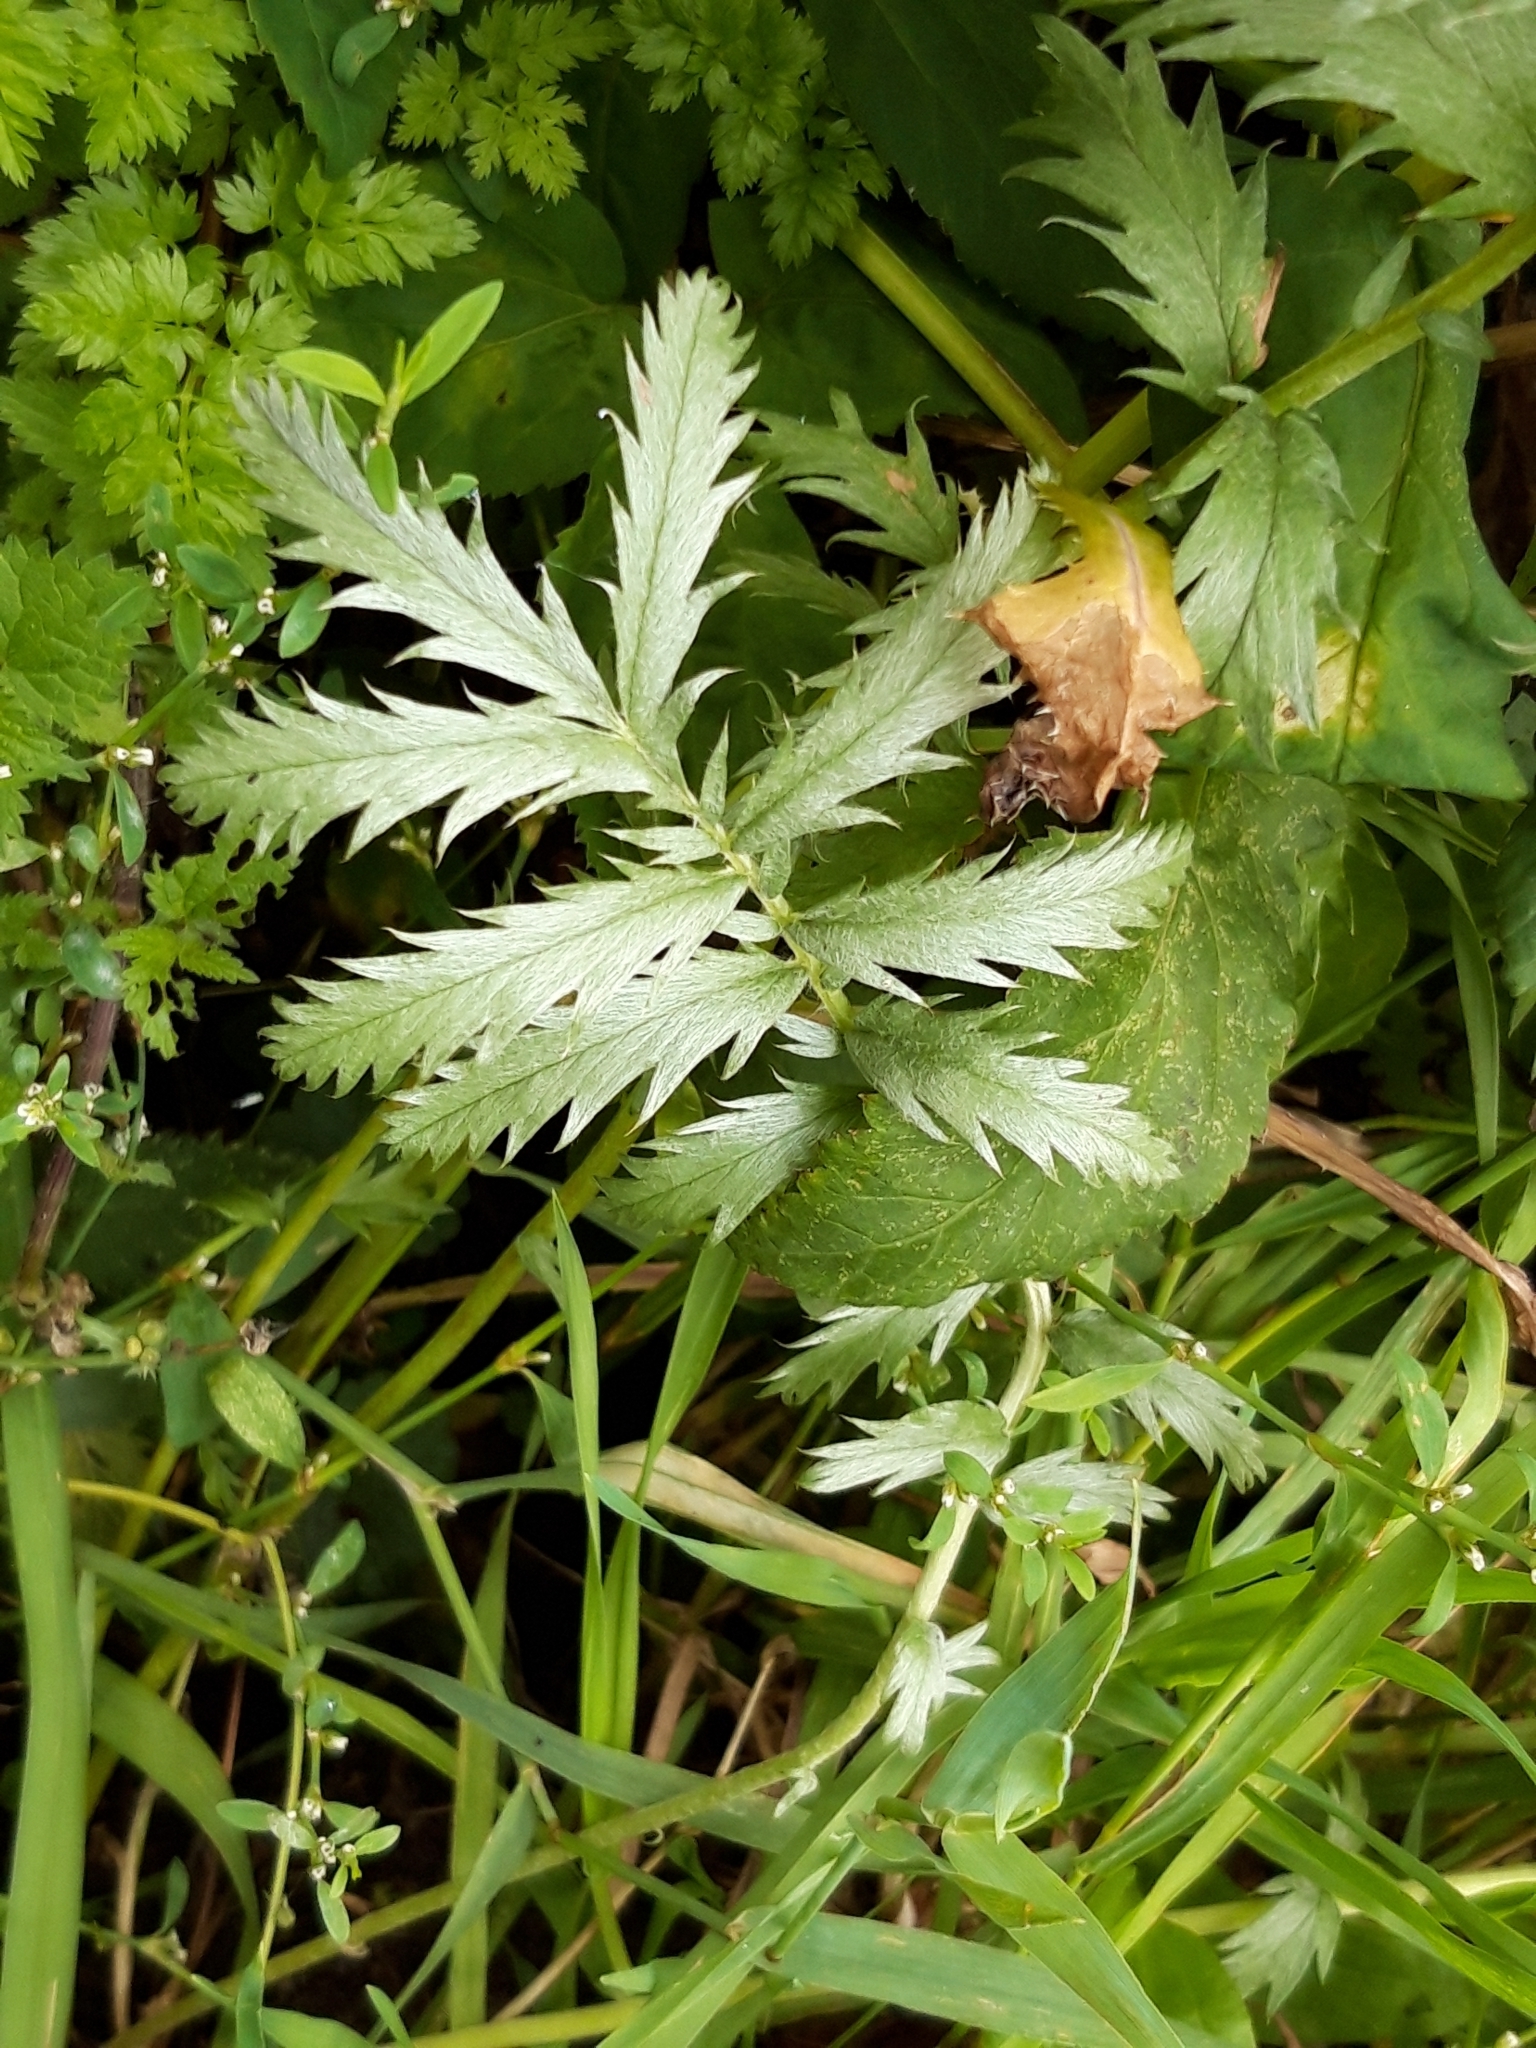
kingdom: Plantae
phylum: Tracheophyta
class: Magnoliopsida
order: Rosales
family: Rosaceae
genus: Argentina
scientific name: Argentina anserina
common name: Common silverweed
